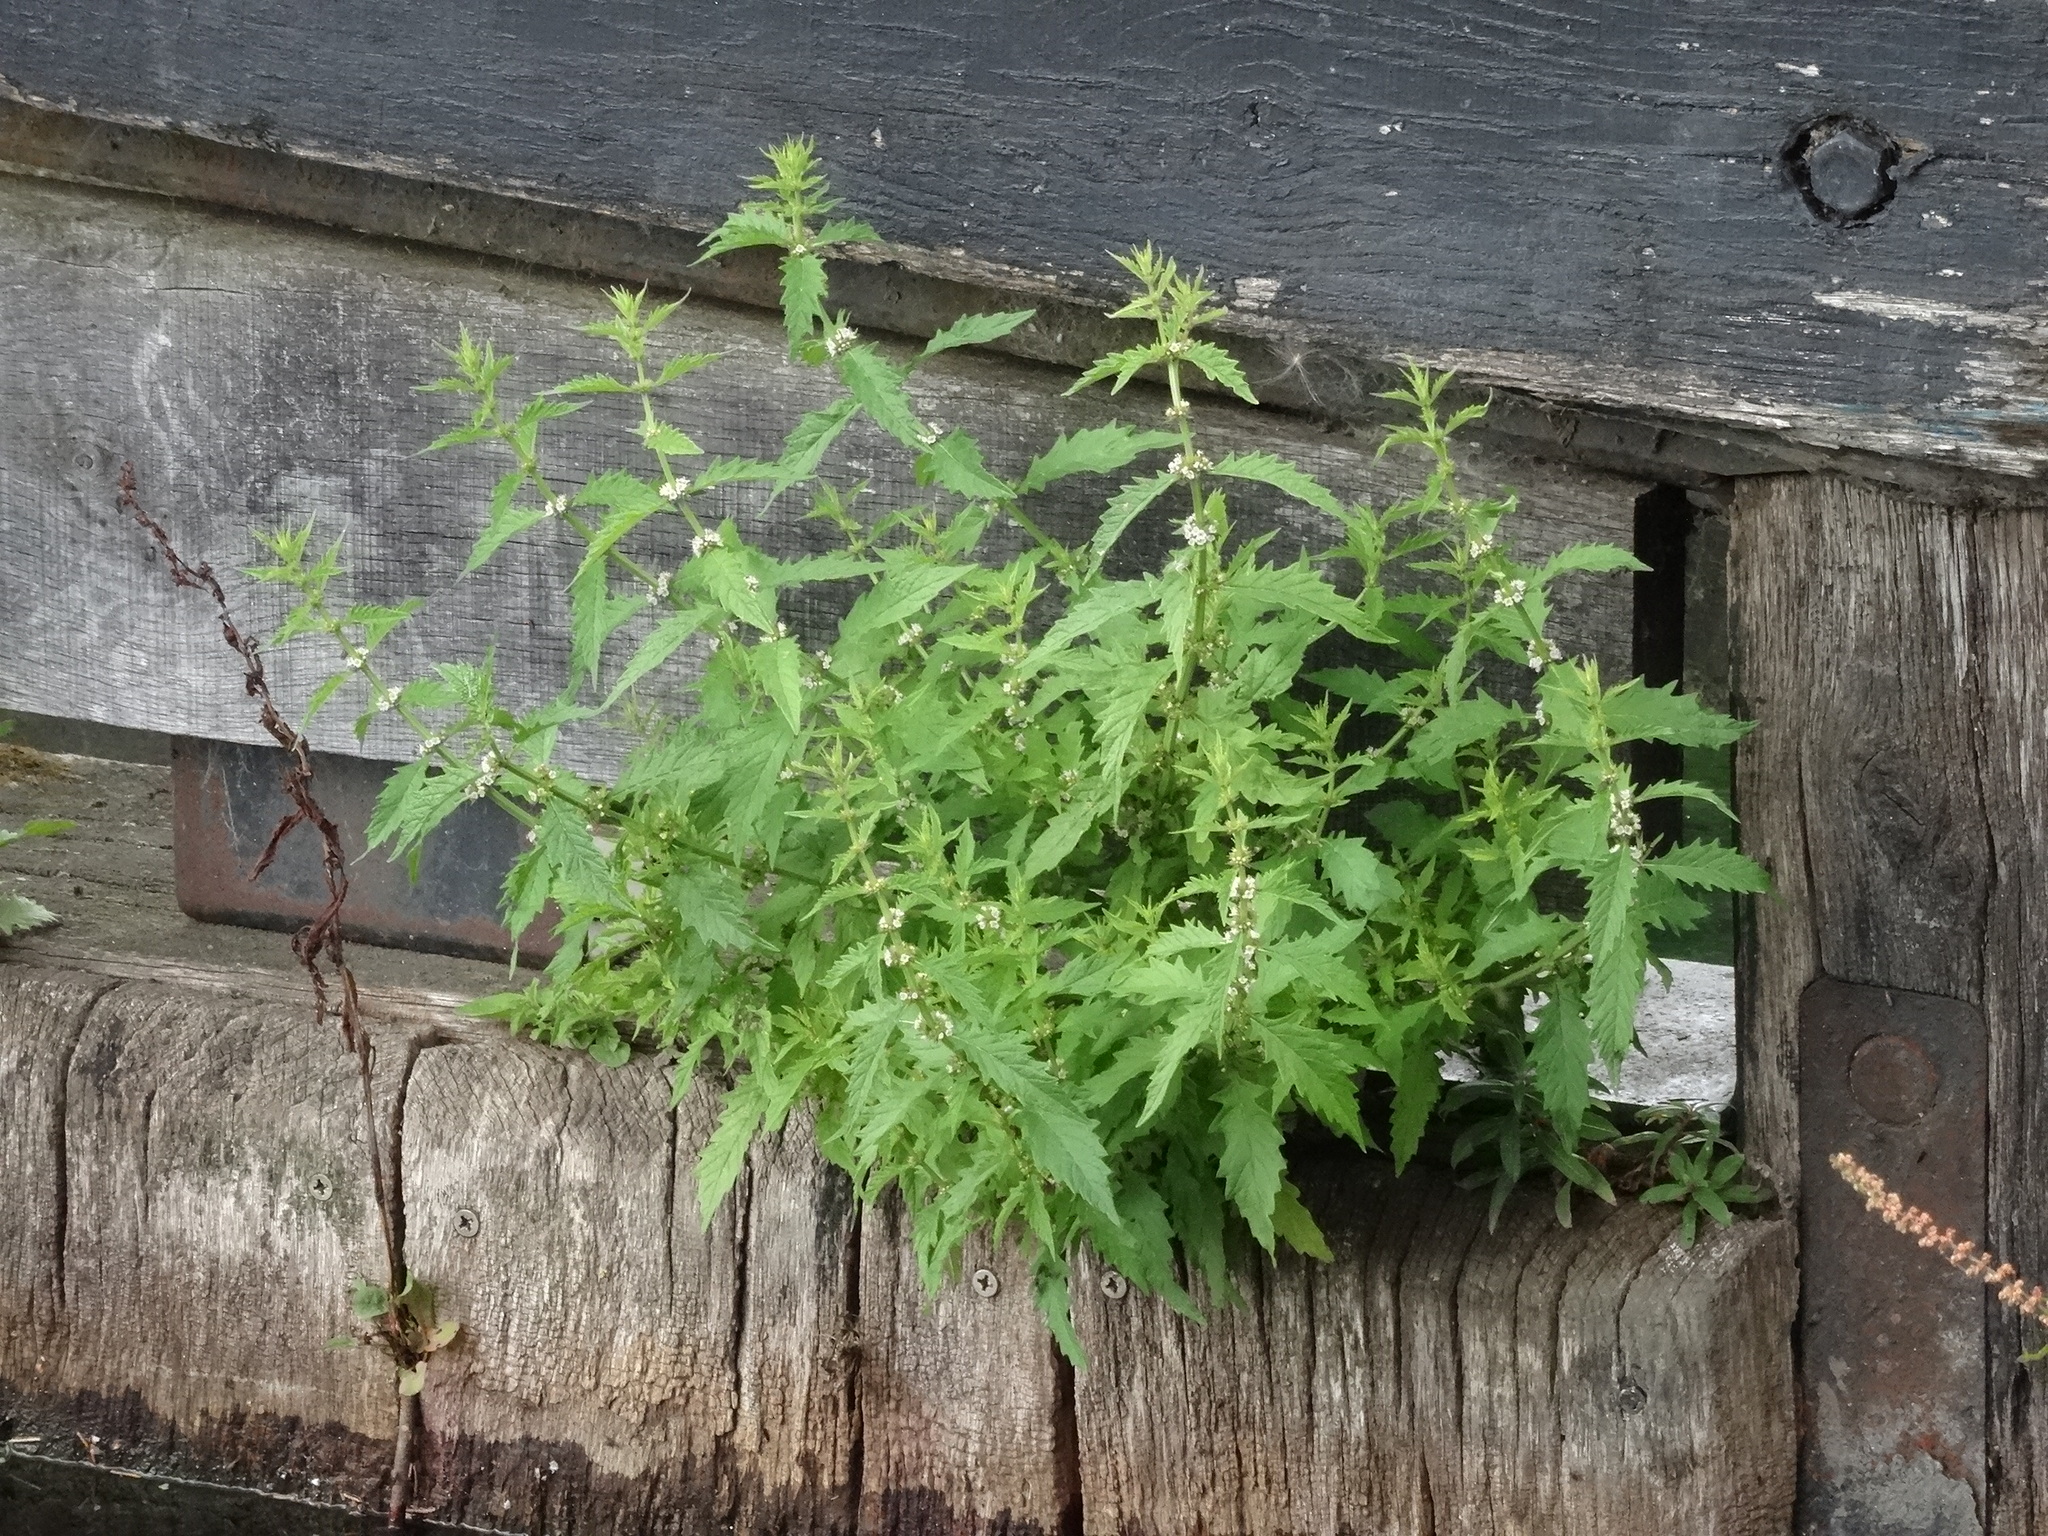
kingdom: Plantae
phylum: Tracheophyta
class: Magnoliopsida
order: Lamiales
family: Lamiaceae
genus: Lycopus
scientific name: Lycopus europaeus
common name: European bugleweed
